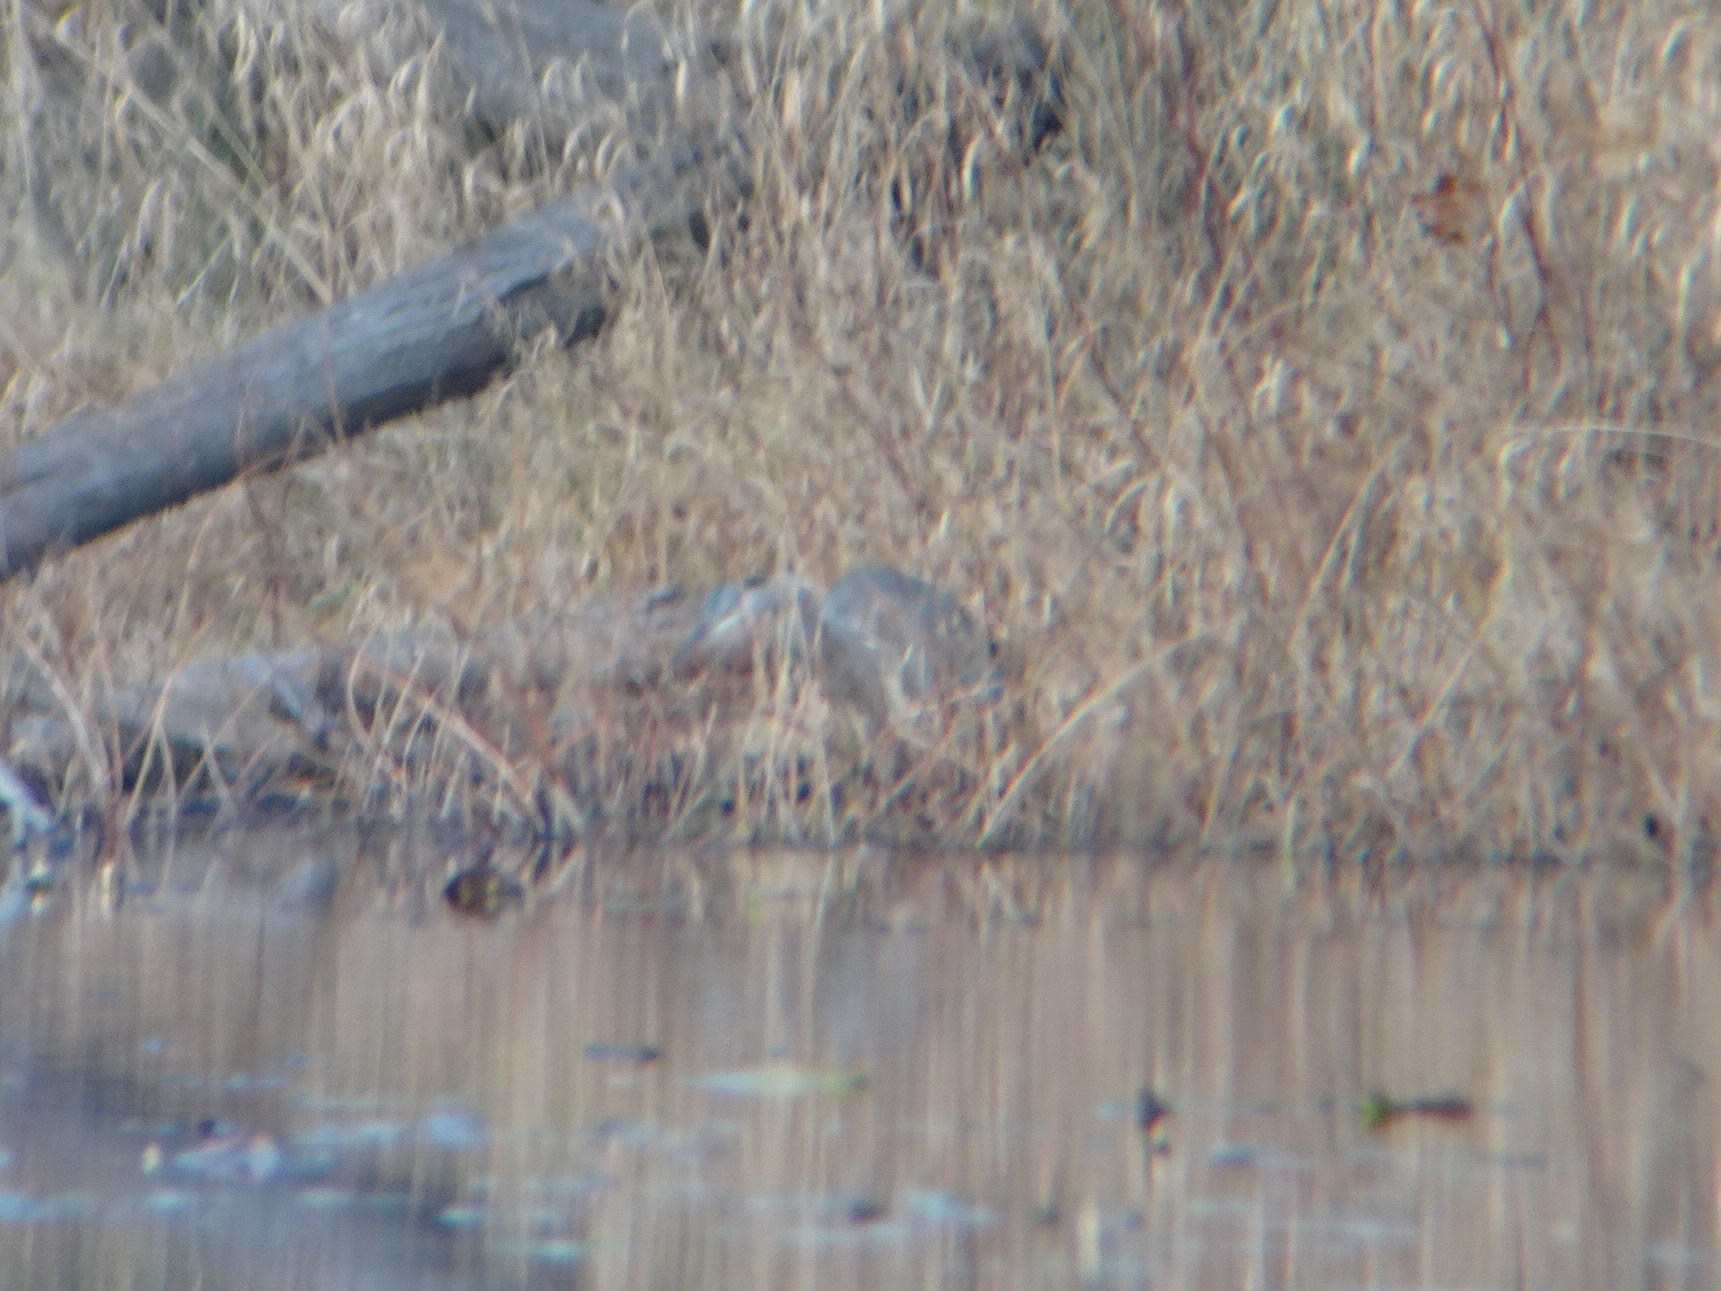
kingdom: Animalia
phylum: Chordata
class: Aves
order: Pelecaniformes
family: Ardeidae
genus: Ardea
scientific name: Ardea herodias
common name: Great blue heron
